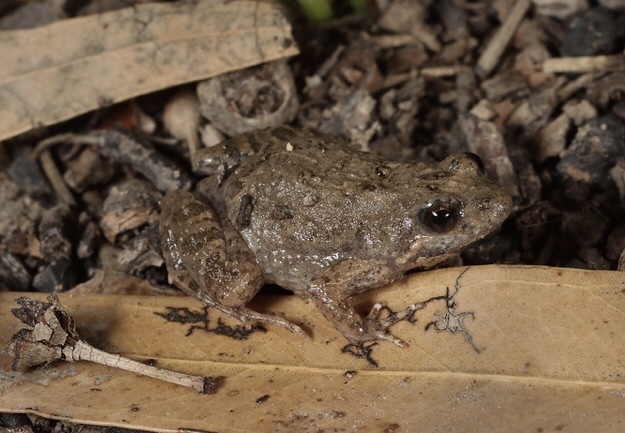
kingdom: Animalia
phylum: Chordata
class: Amphibia
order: Anura
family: Myobatrachidae
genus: Crinia
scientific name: Crinia parinsignifera
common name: Beeping froglet
